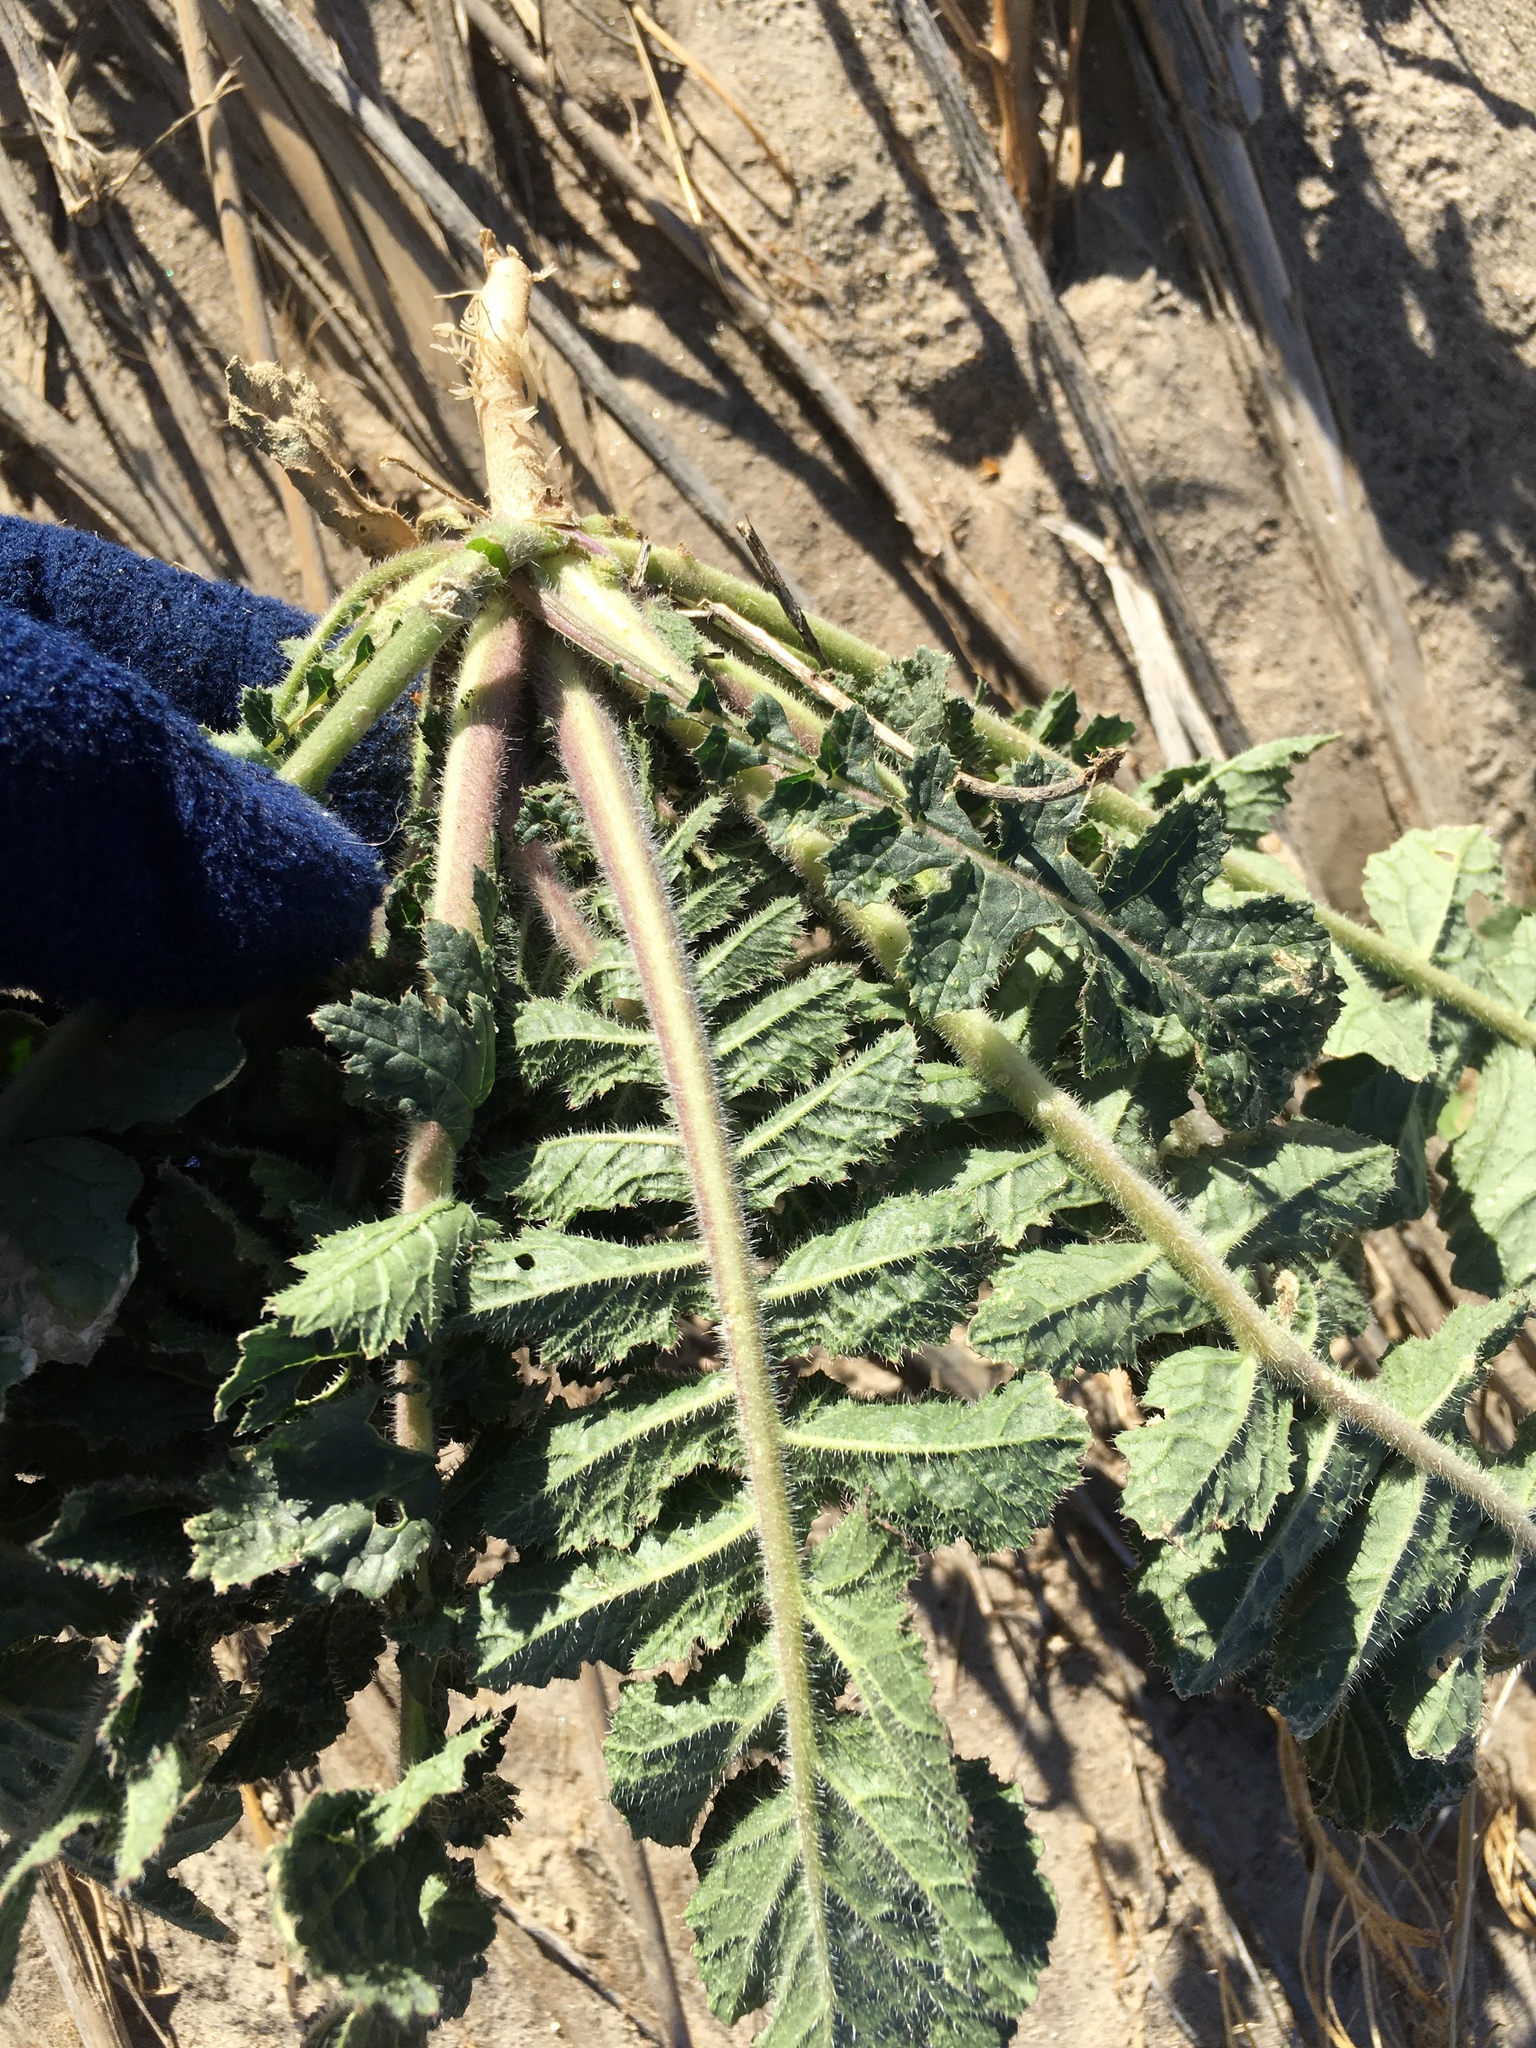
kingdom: Plantae
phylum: Tracheophyta
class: Magnoliopsida
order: Brassicales
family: Brassicaceae
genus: Brassica
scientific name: Brassica tournefortii
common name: Pale cabbage
